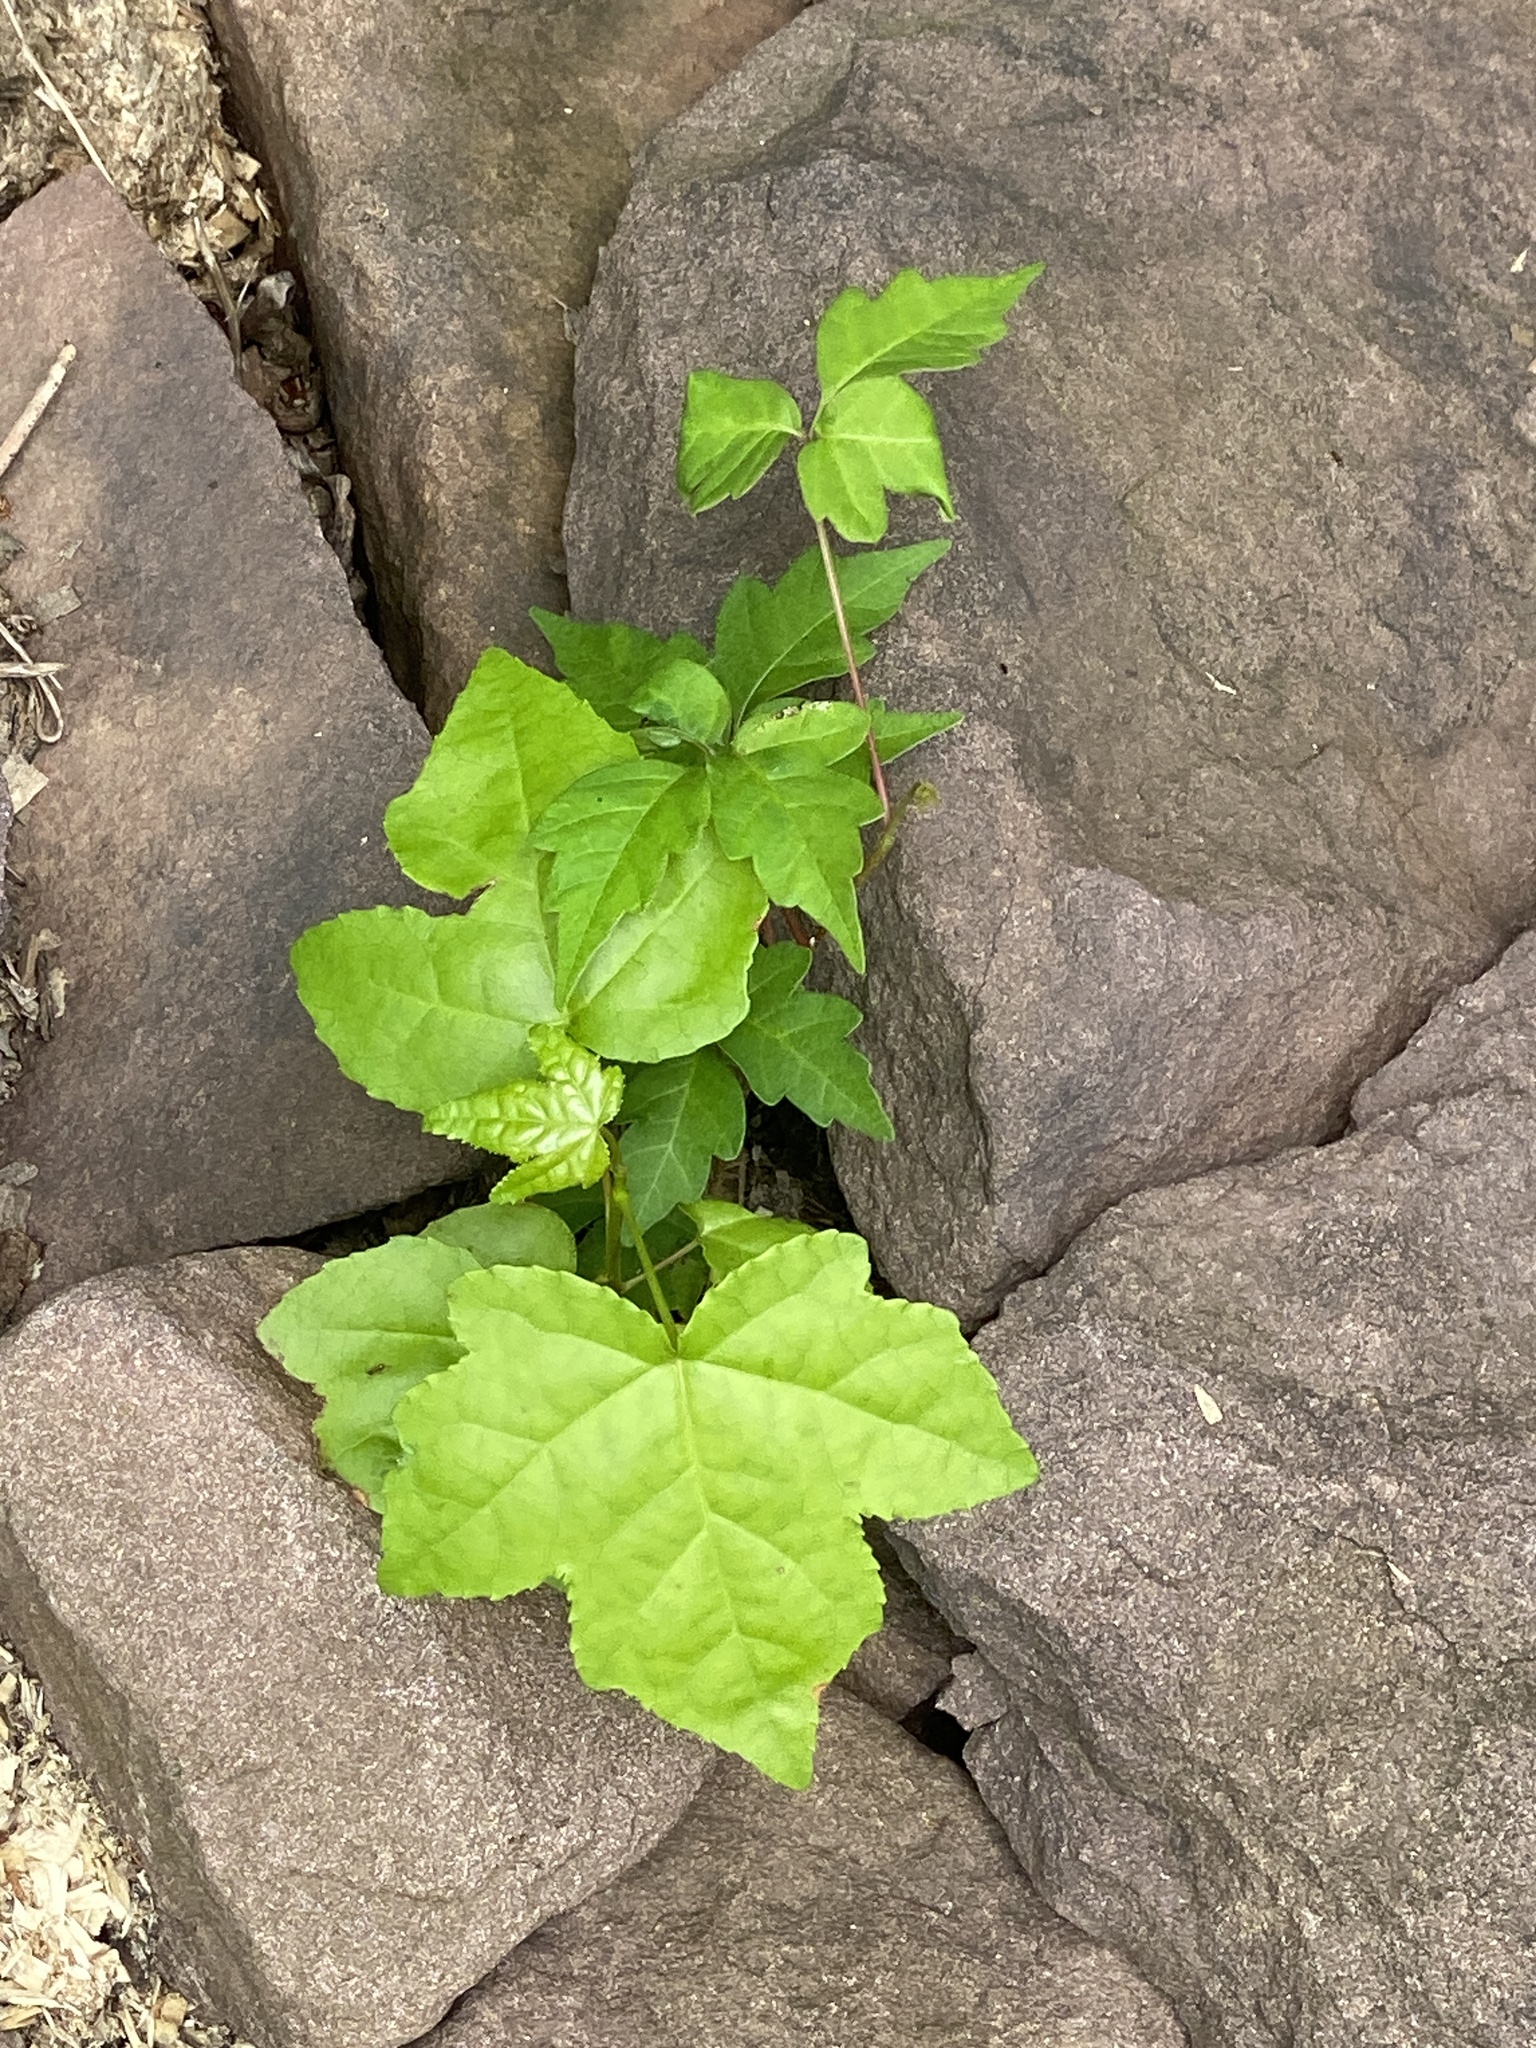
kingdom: Plantae
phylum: Tracheophyta
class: Magnoliopsida
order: Saxifragales
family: Altingiaceae
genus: Liquidambar
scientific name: Liquidambar styraciflua
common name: Sweet gum
